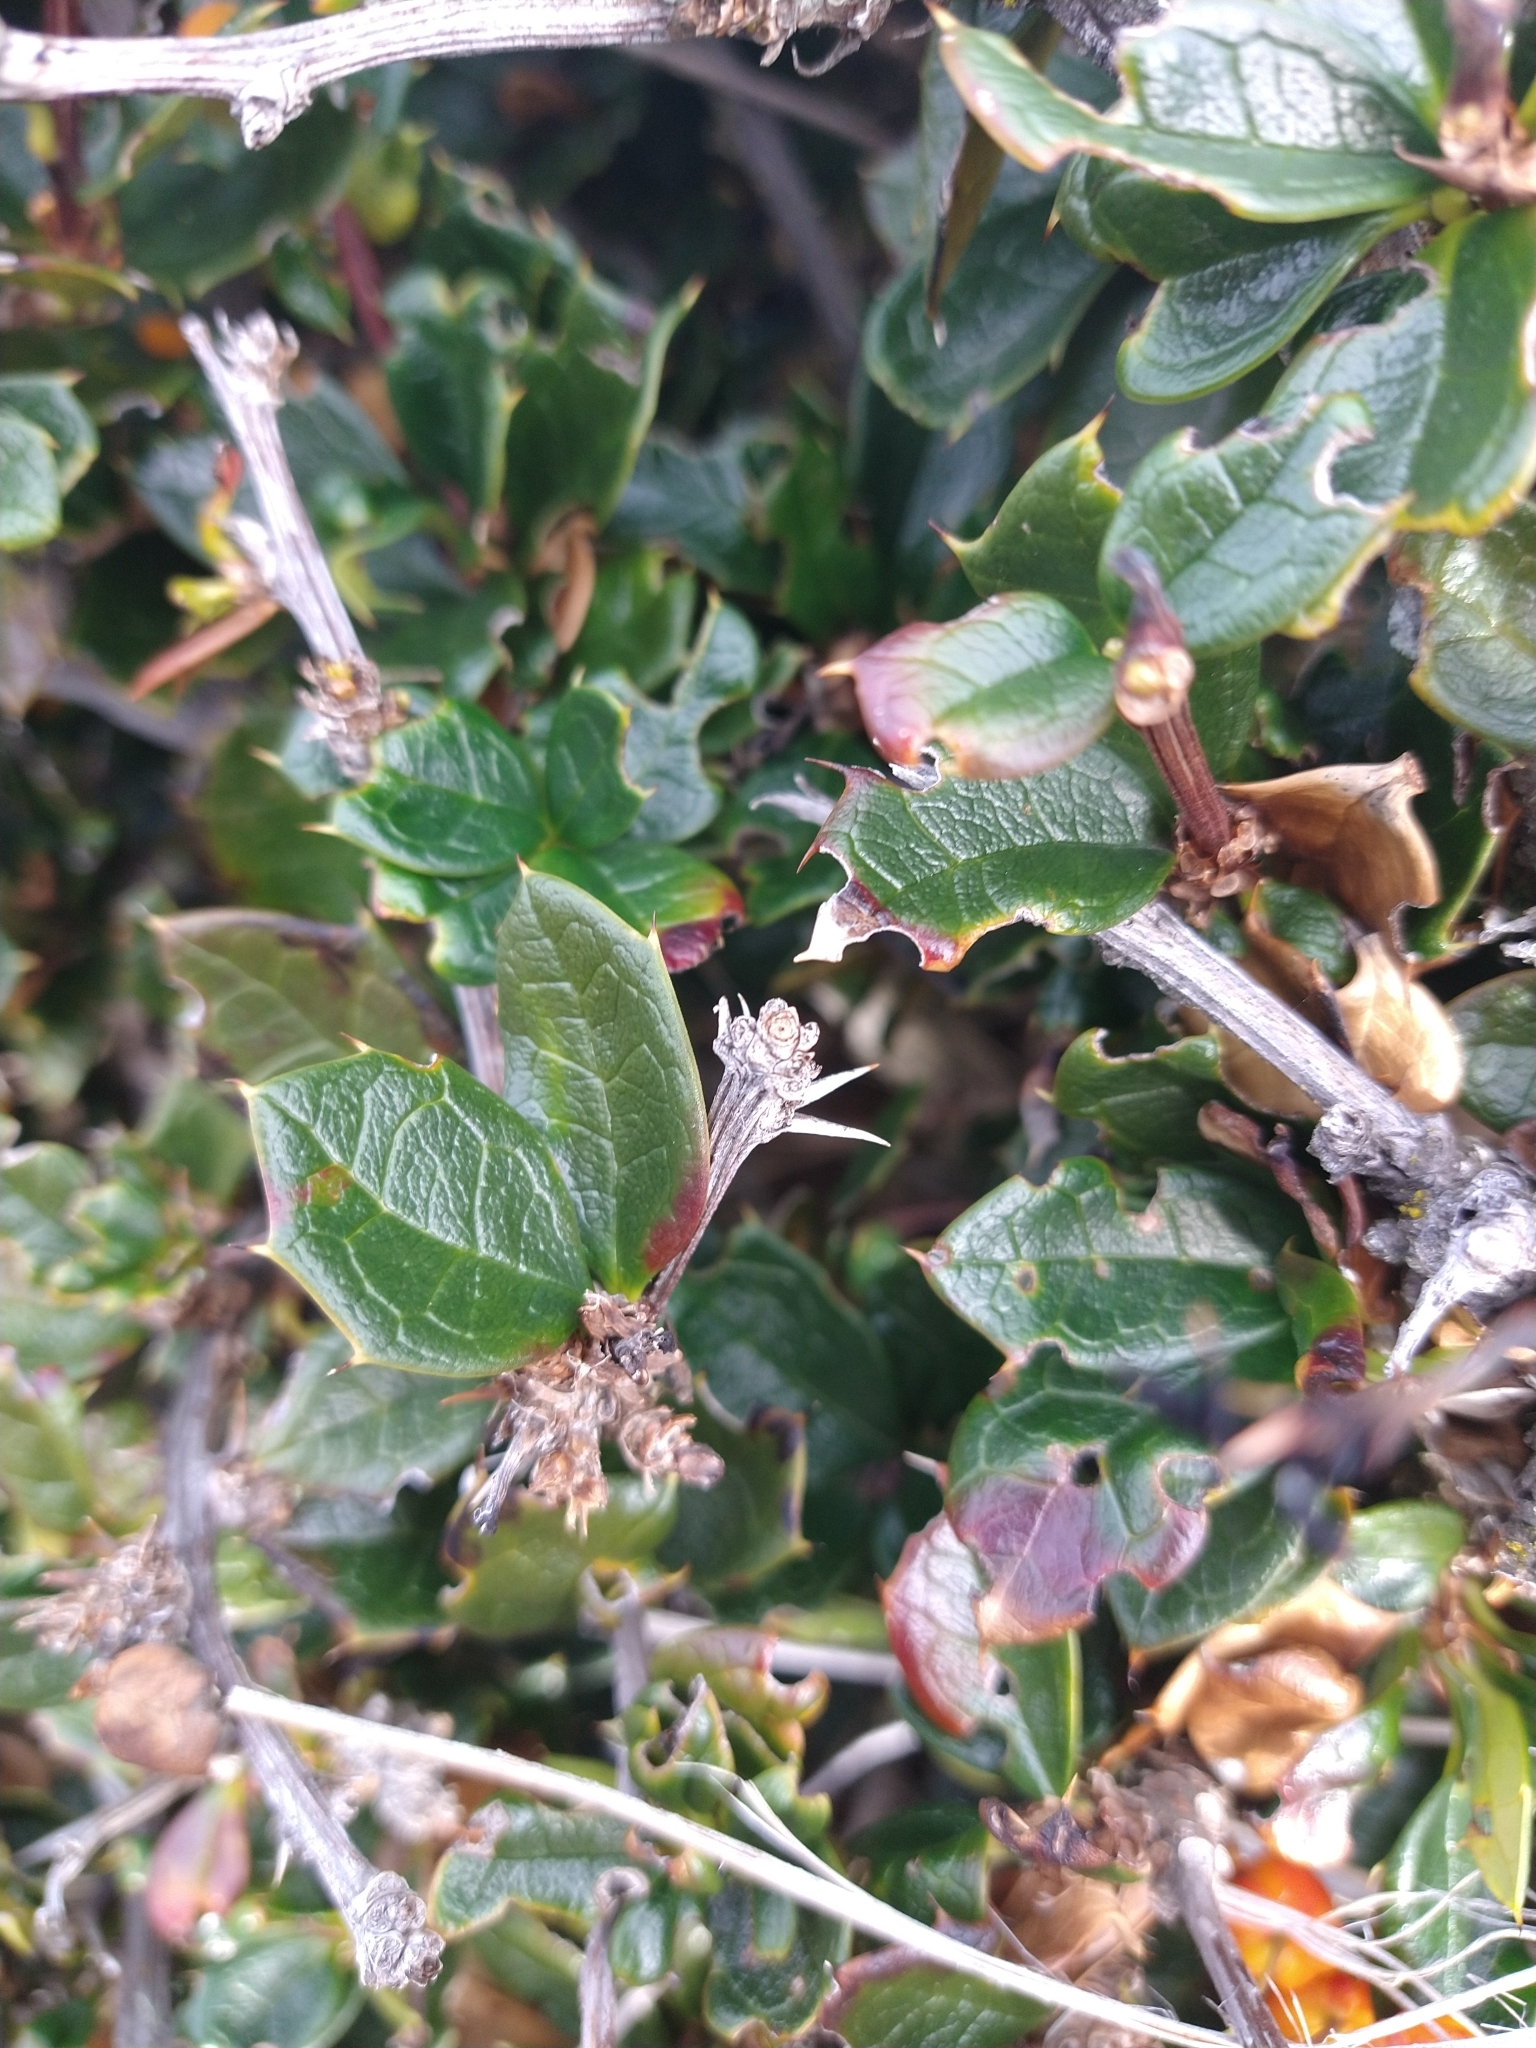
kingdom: Plantae
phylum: Tracheophyta
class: Magnoliopsida
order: Ranunculales
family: Berberidaceae
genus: Berberis
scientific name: Berberis ilicifolia
